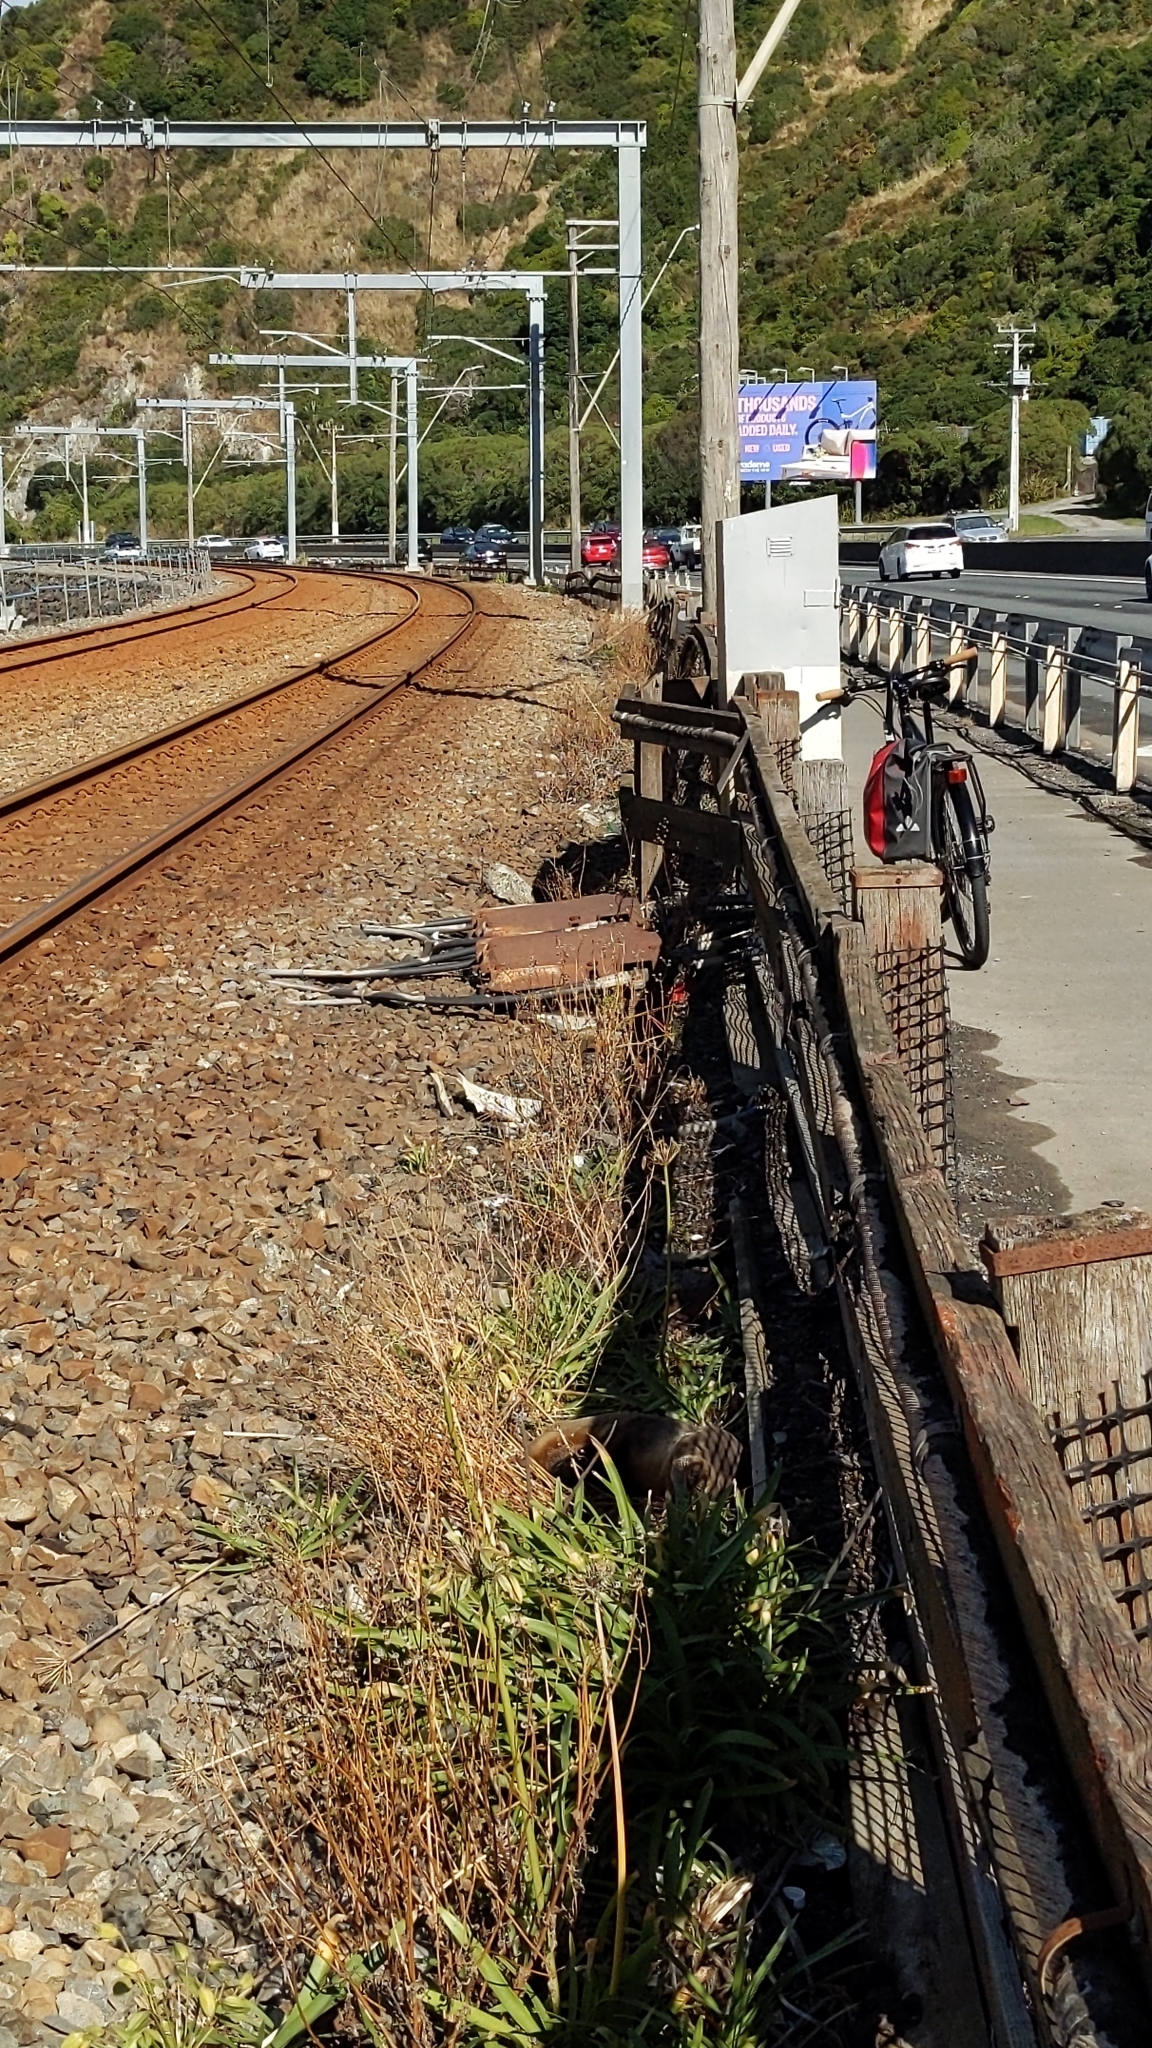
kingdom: Animalia
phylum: Chordata
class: Mammalia
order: Carnivora
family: Otariidae
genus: Arctocephalus
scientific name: Arctocephalus forsteri
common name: New zealand fur seal
